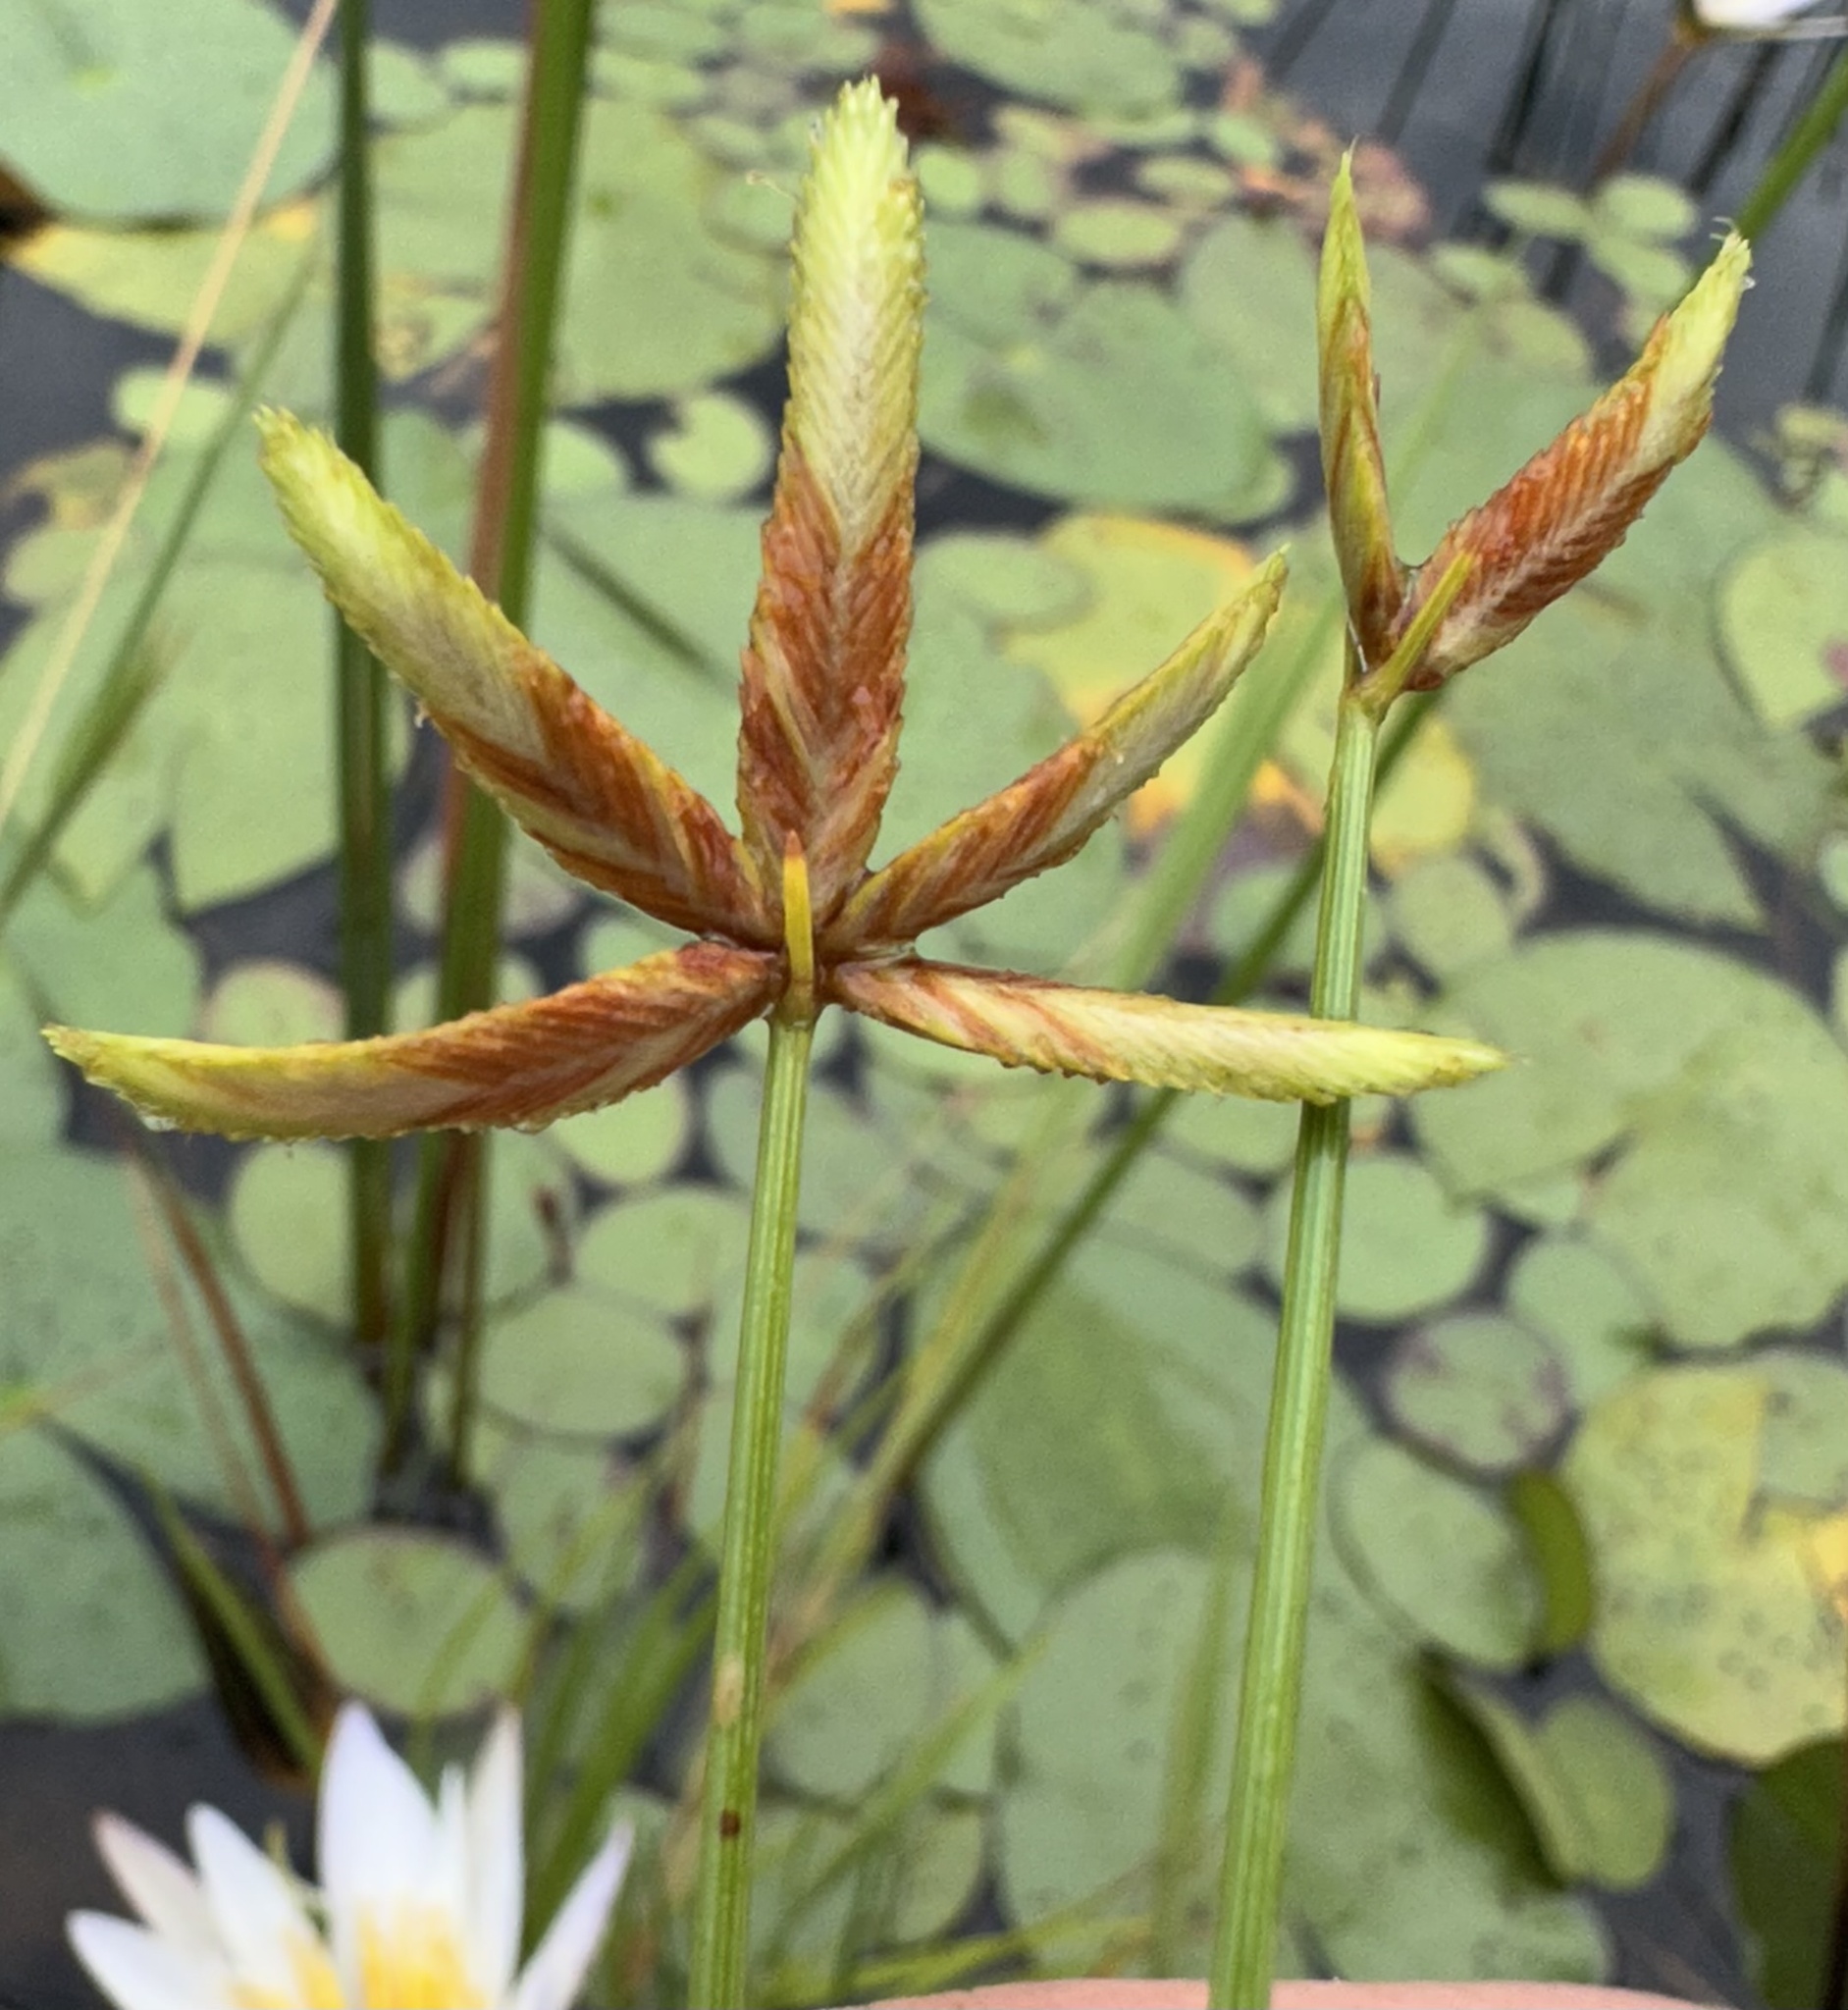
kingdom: Plantae
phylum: Tracheophyta
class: Liliopsida
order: Poales
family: Cyperaceae
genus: Cyperus
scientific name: Cyperus pectinatus
